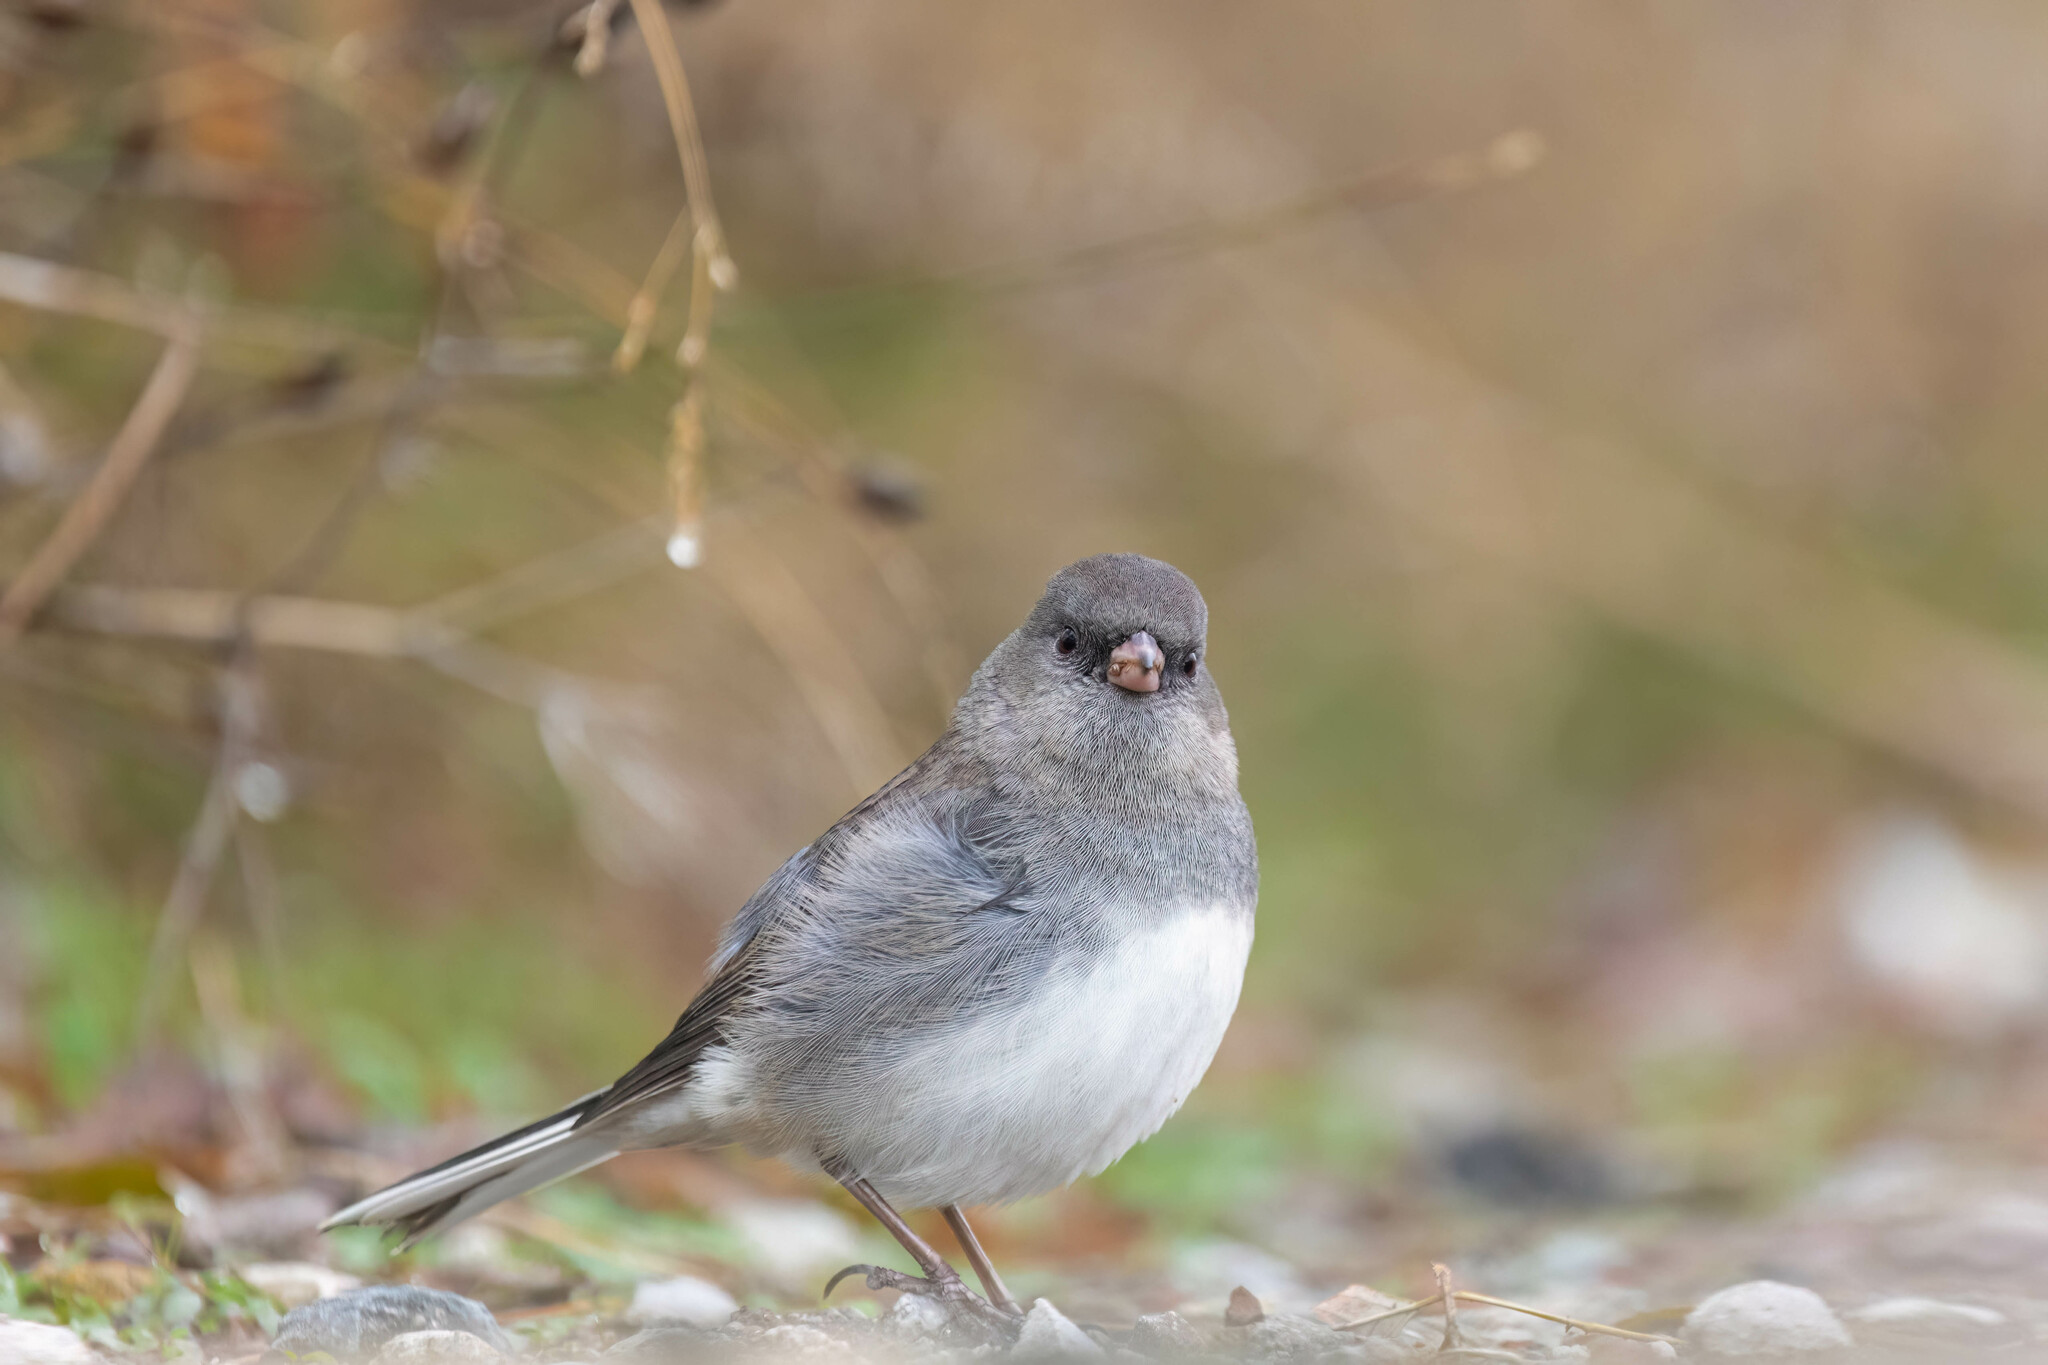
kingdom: Animalia
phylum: Chordata
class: Aves
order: Passeriformes
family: Passerellidae
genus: Junco
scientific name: Junco hyemalis
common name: Dark-eyed junco
